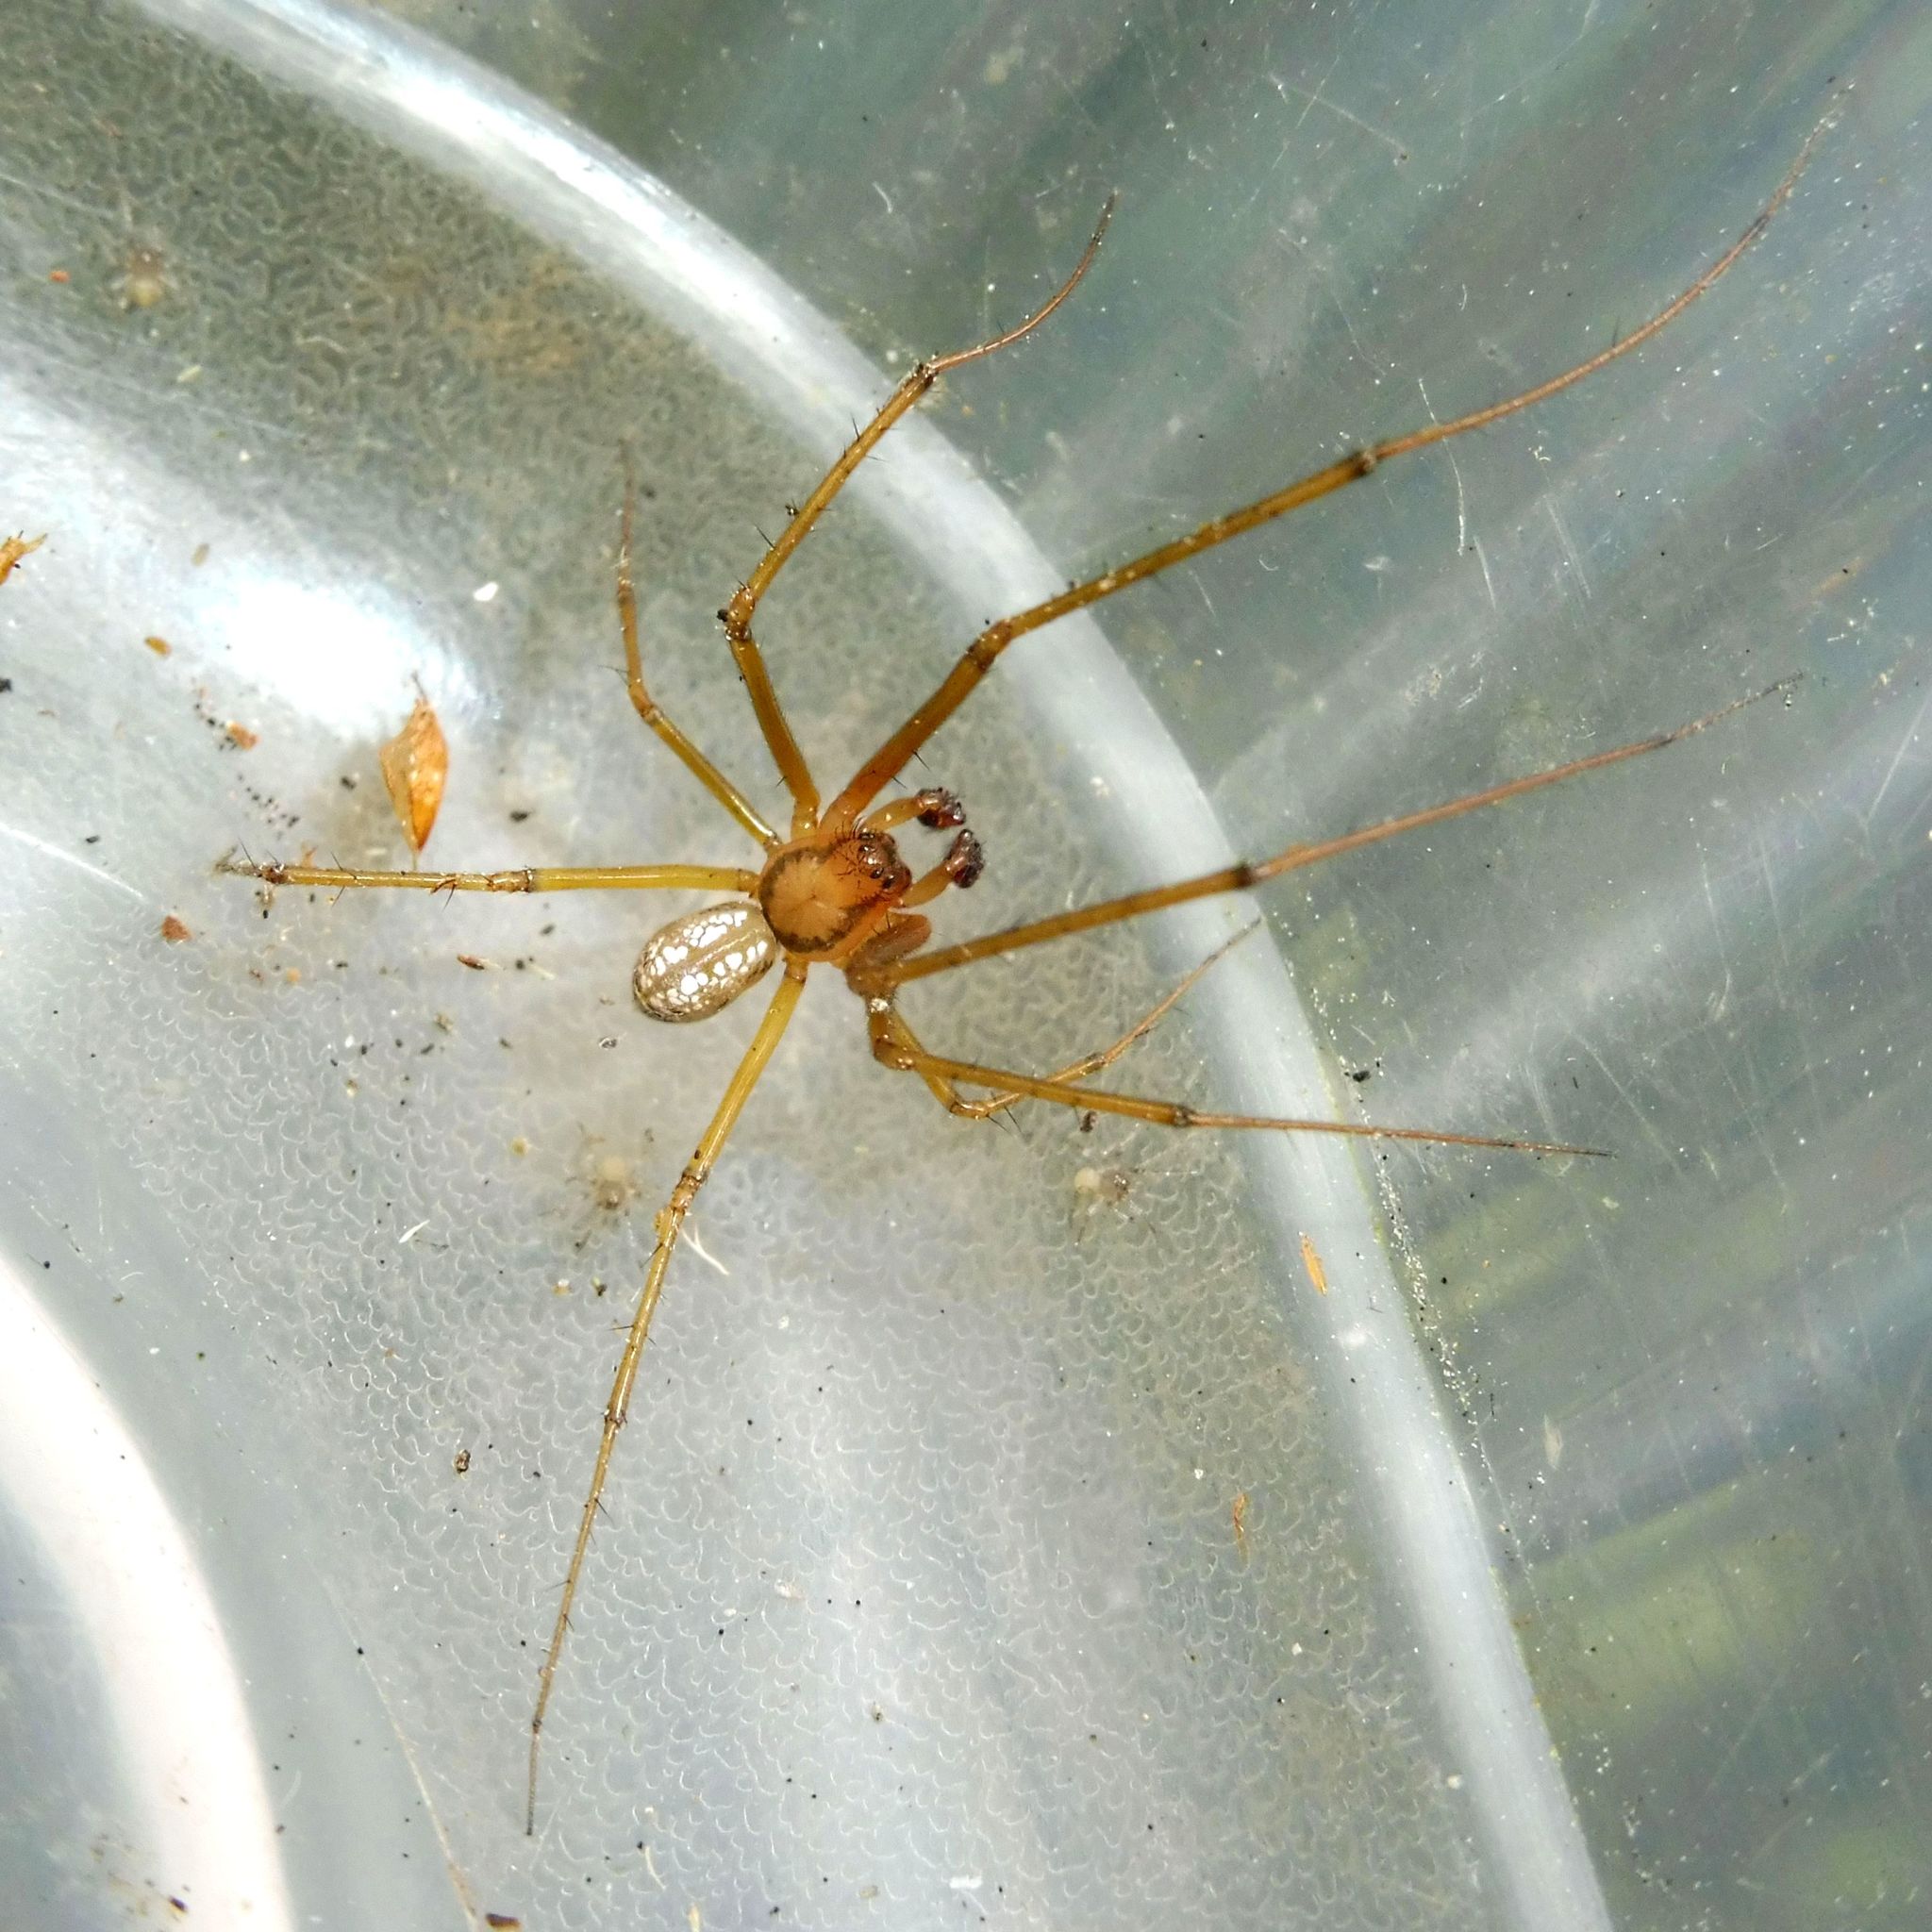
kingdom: Animalia
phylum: Arthropoda
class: Arachnida
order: Araneae
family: Linyphiidae
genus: Floronia
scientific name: Floronia bucculenta
